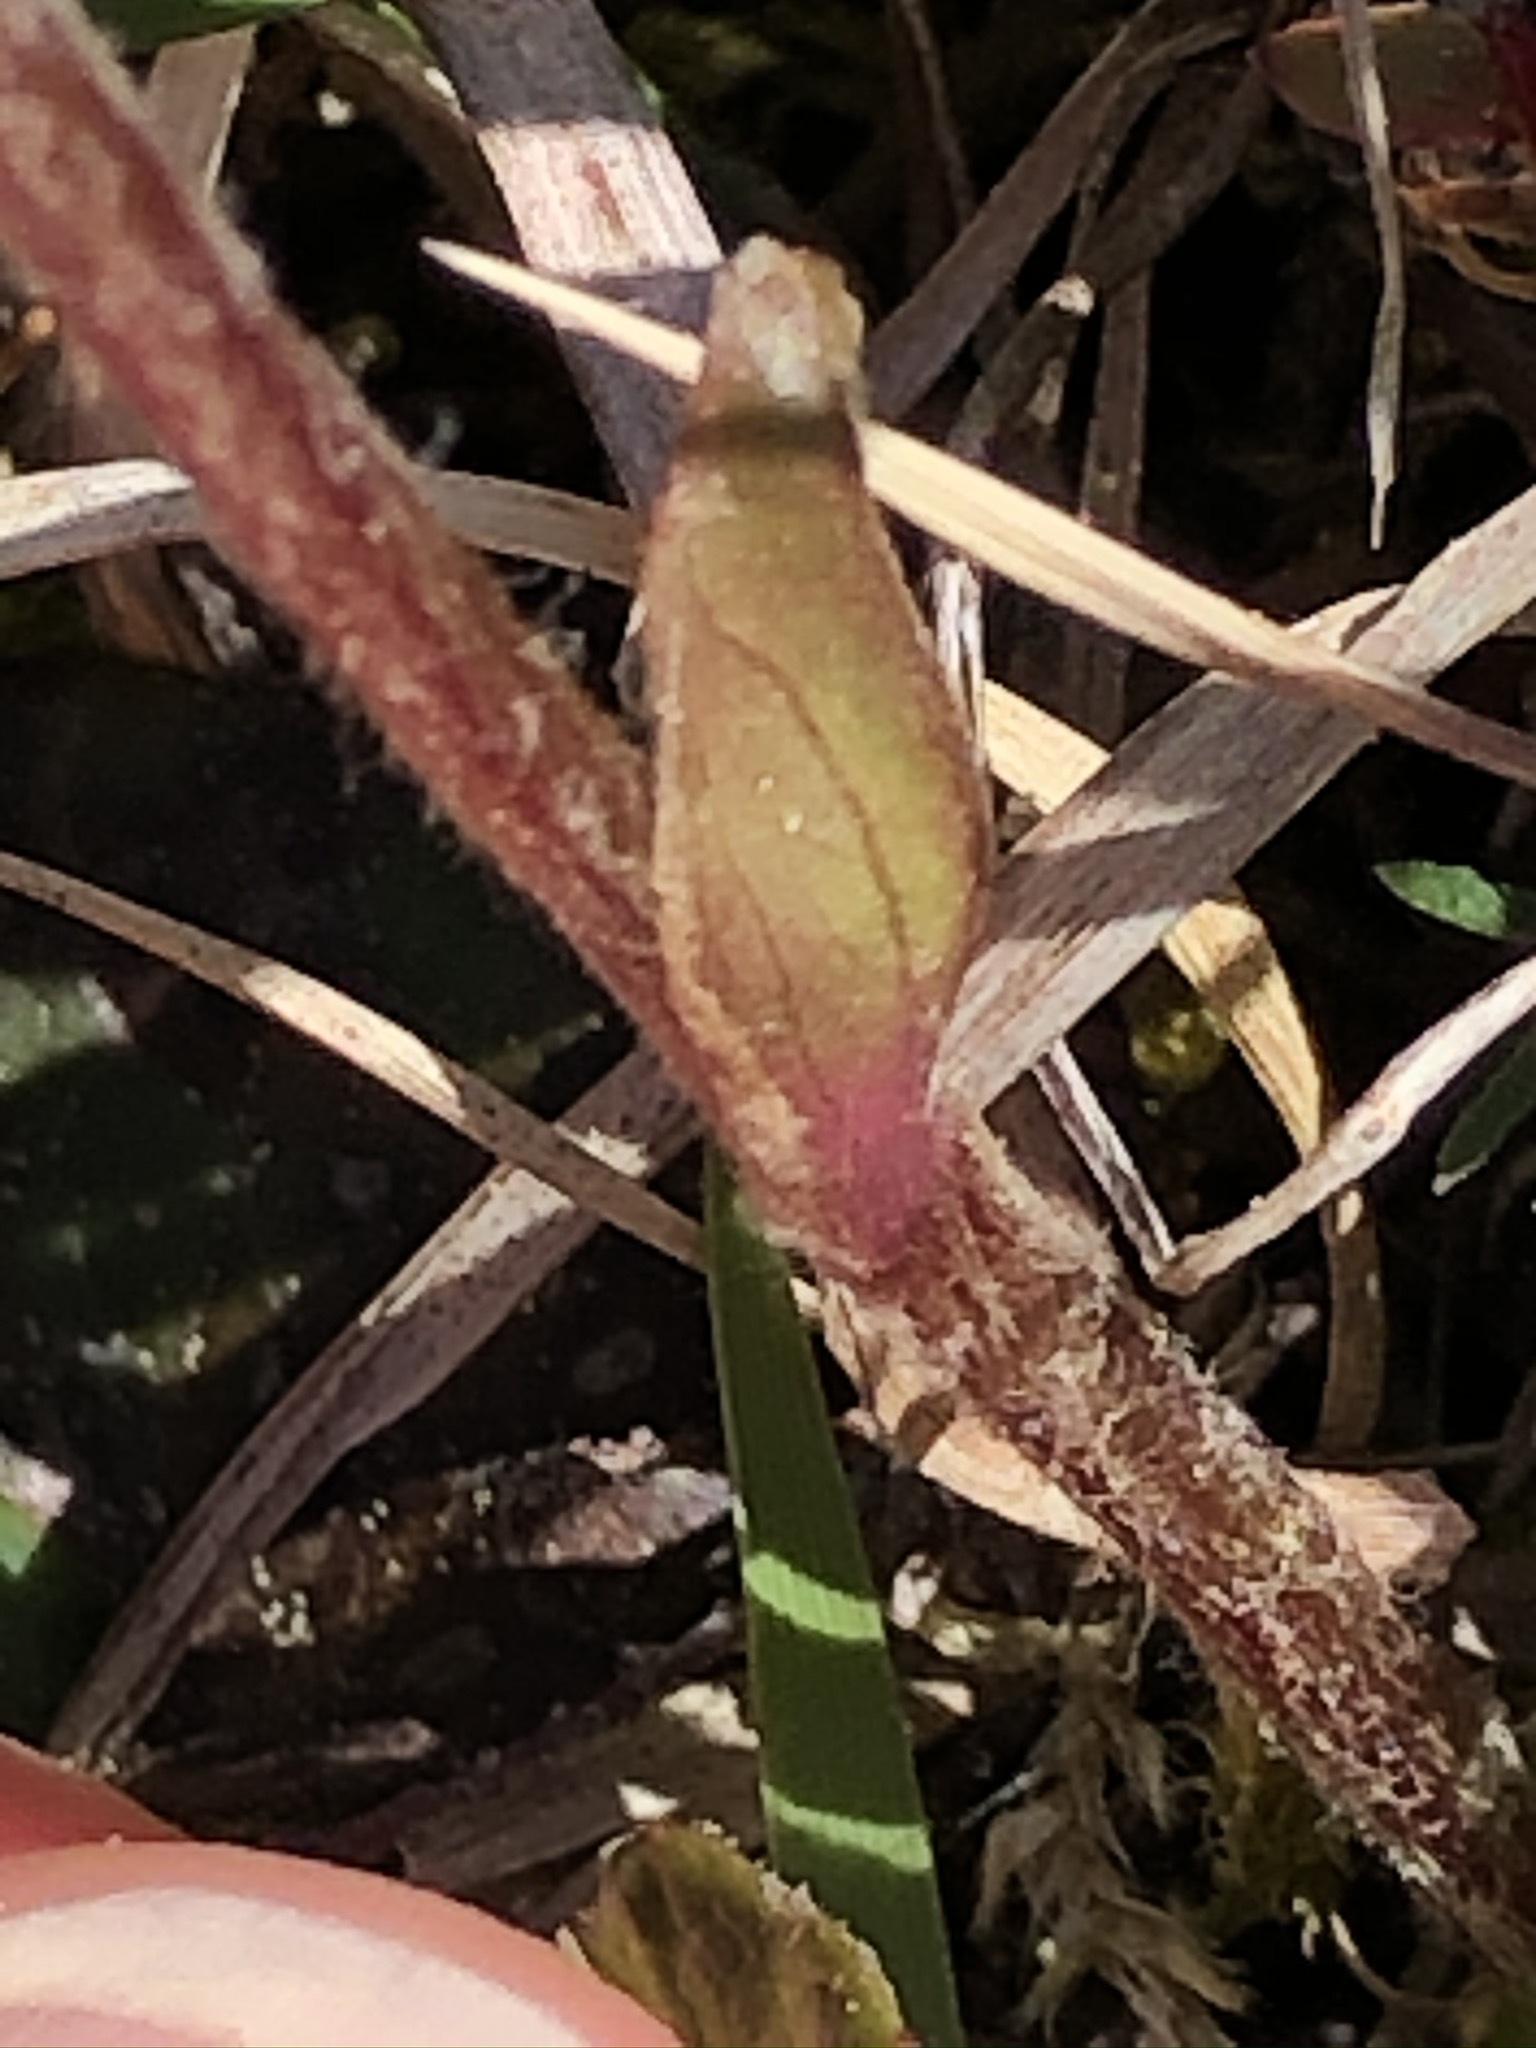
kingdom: Plantae
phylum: Tracheophyta
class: Magnoliopsida
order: Asterales
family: Asteraceae
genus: Homogyne
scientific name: Homogyne alpina
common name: Purple colt's-foot
